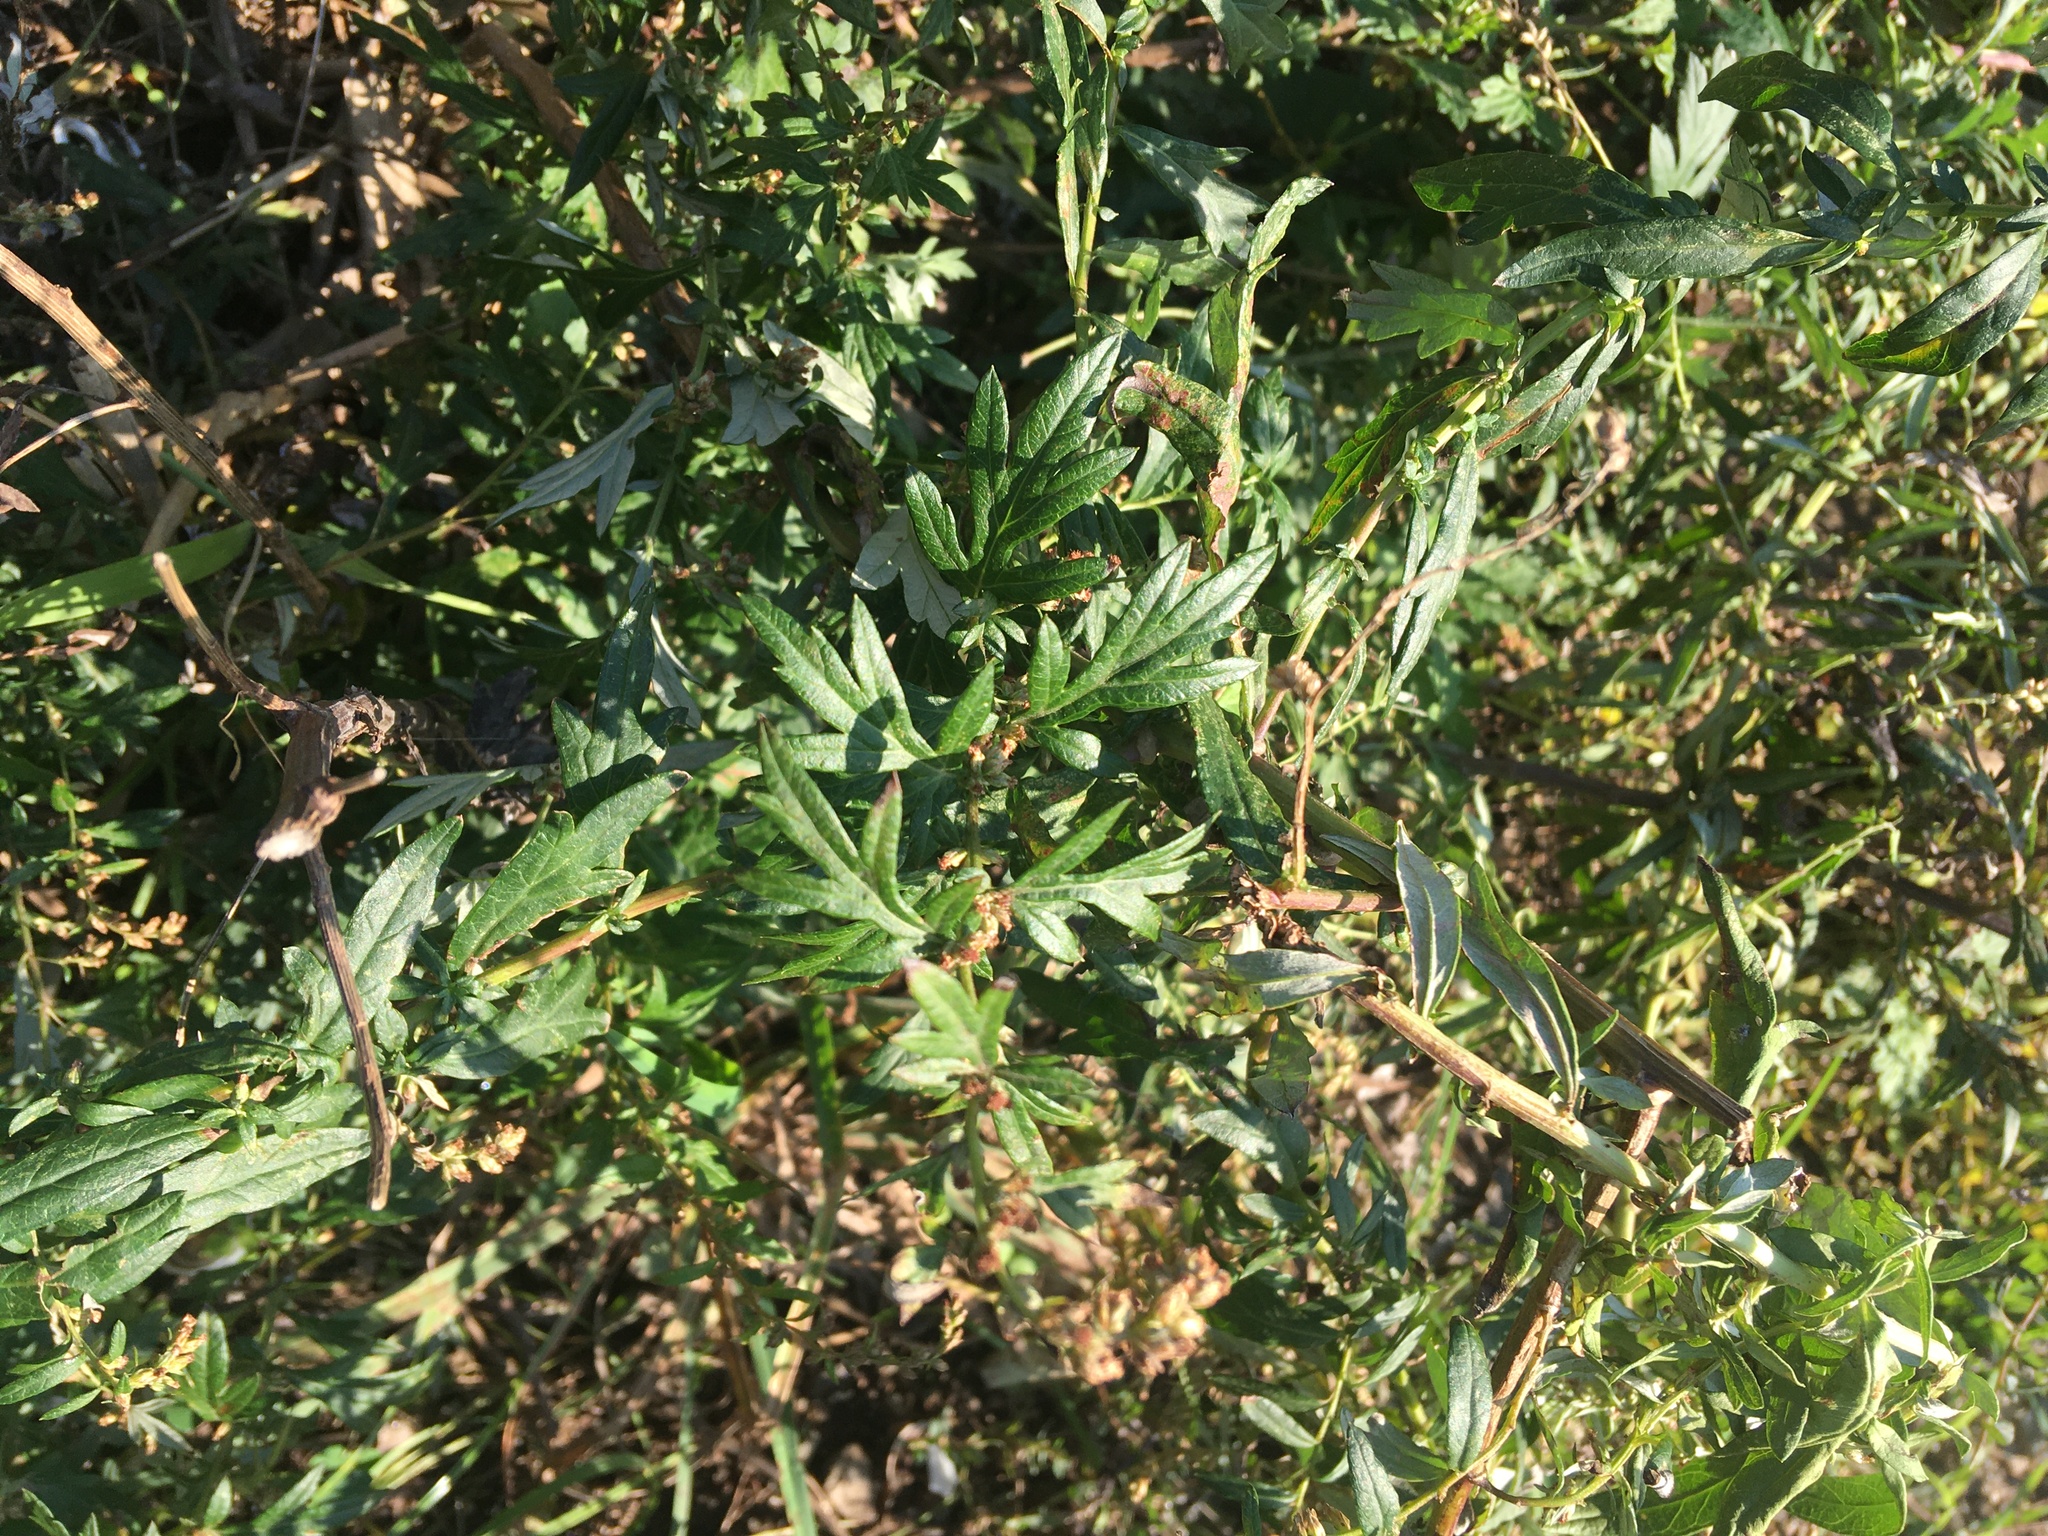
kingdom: Plantae
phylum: Tracheophyta
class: Magnoliopsida
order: Asterales
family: Asteraceae
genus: Artemisia
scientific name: Artemisia vulgaris
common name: Mugwort
